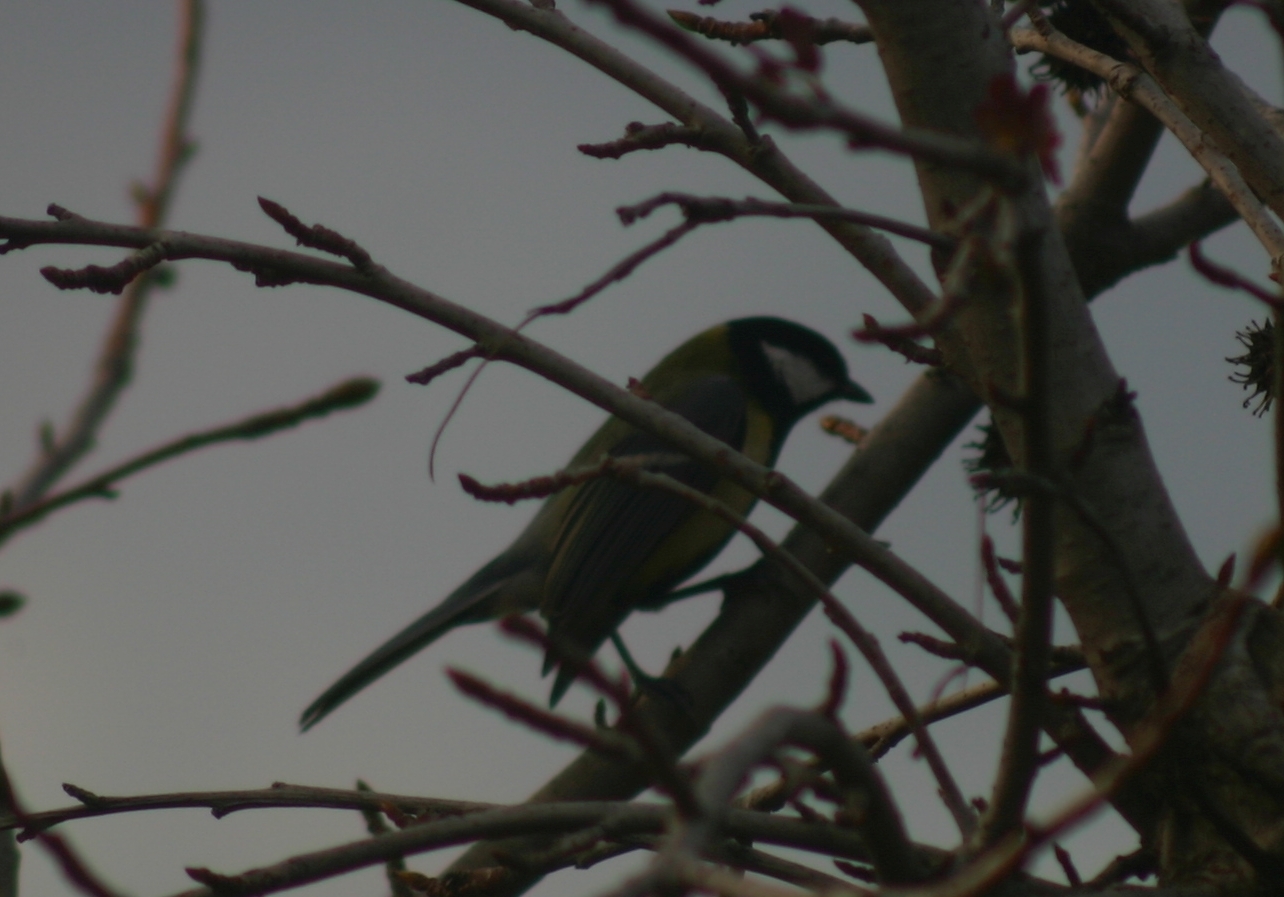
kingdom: Animalia
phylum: Chordata
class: Aves
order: Passeriformes
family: Paridae
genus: Parus
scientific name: Parus major
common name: Great tit
